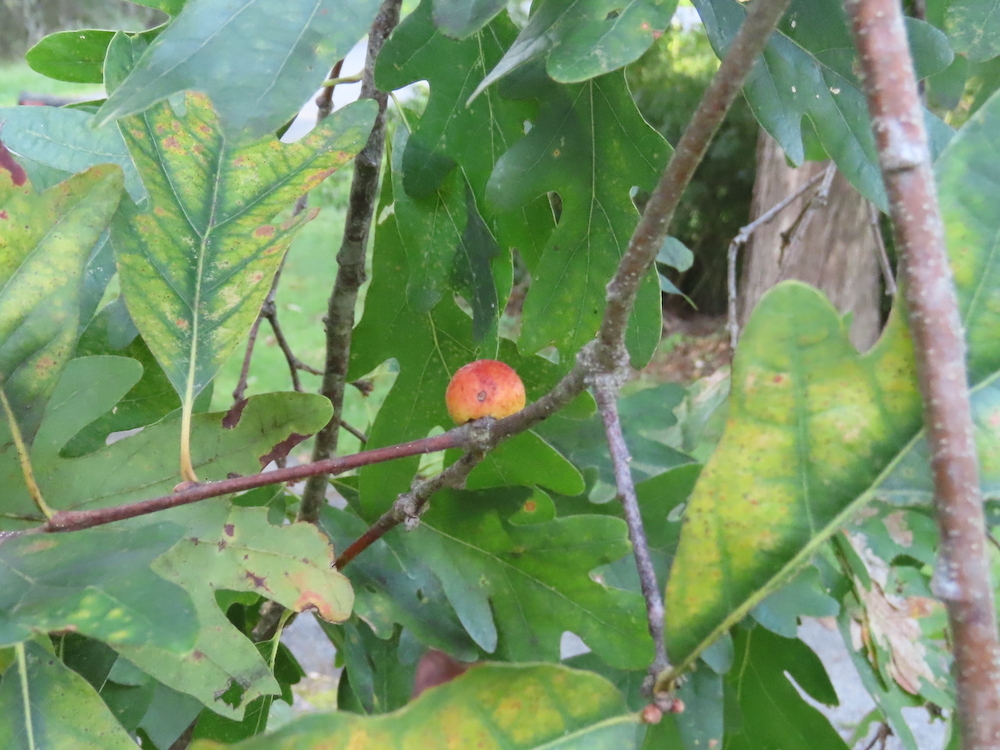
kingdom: Animalia
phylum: Arthropoda
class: Insecta
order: Hymenoptera
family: Cynipidae
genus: Disholcaspis
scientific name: Disholcaspis quercusglobulus
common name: Round bullet gall wasp
